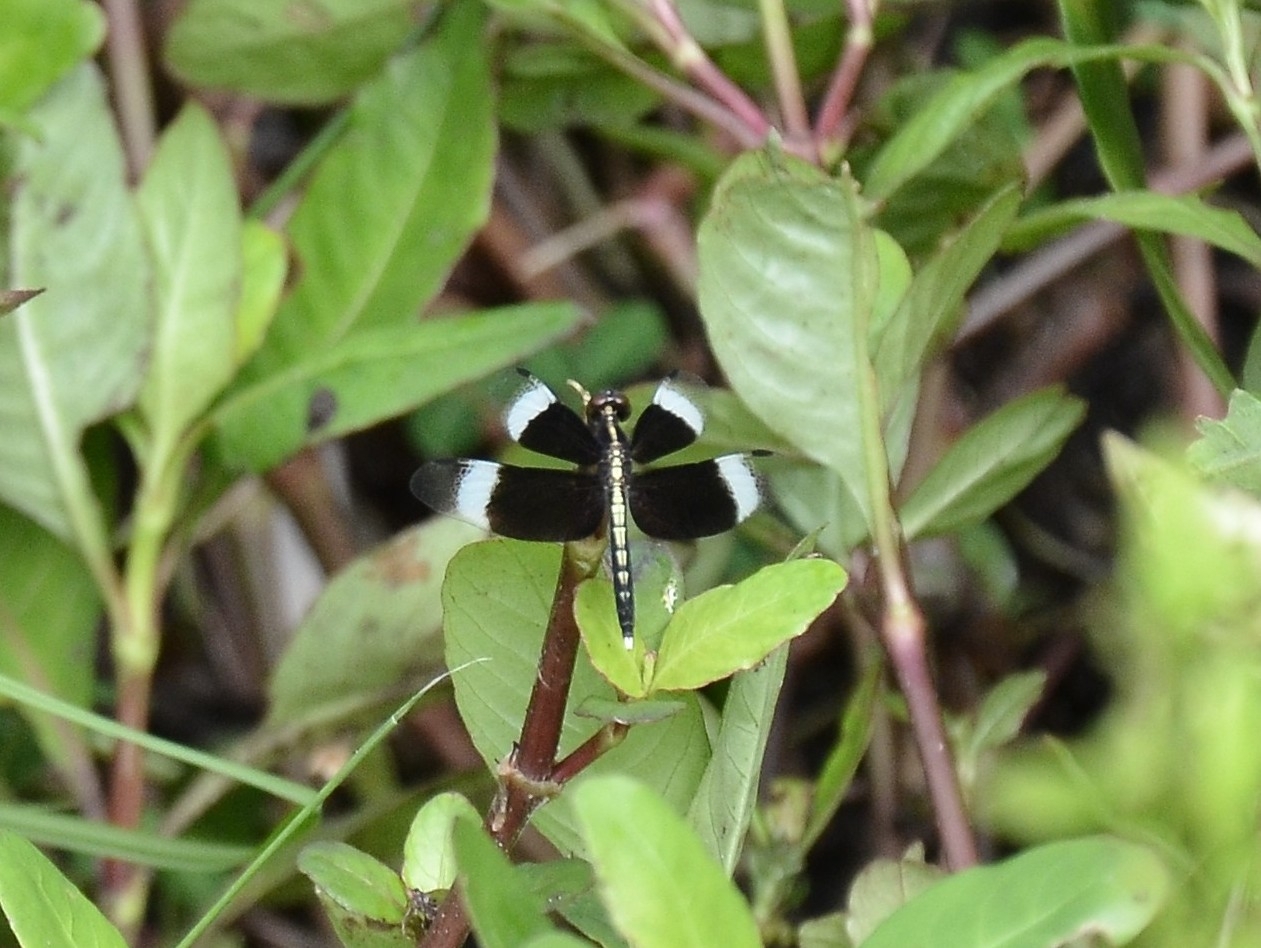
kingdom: Animalia
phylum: Arthropoda
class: Insecta
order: Odonata
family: Libellulidae
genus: Neurothemis
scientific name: Neurothemis tullia
